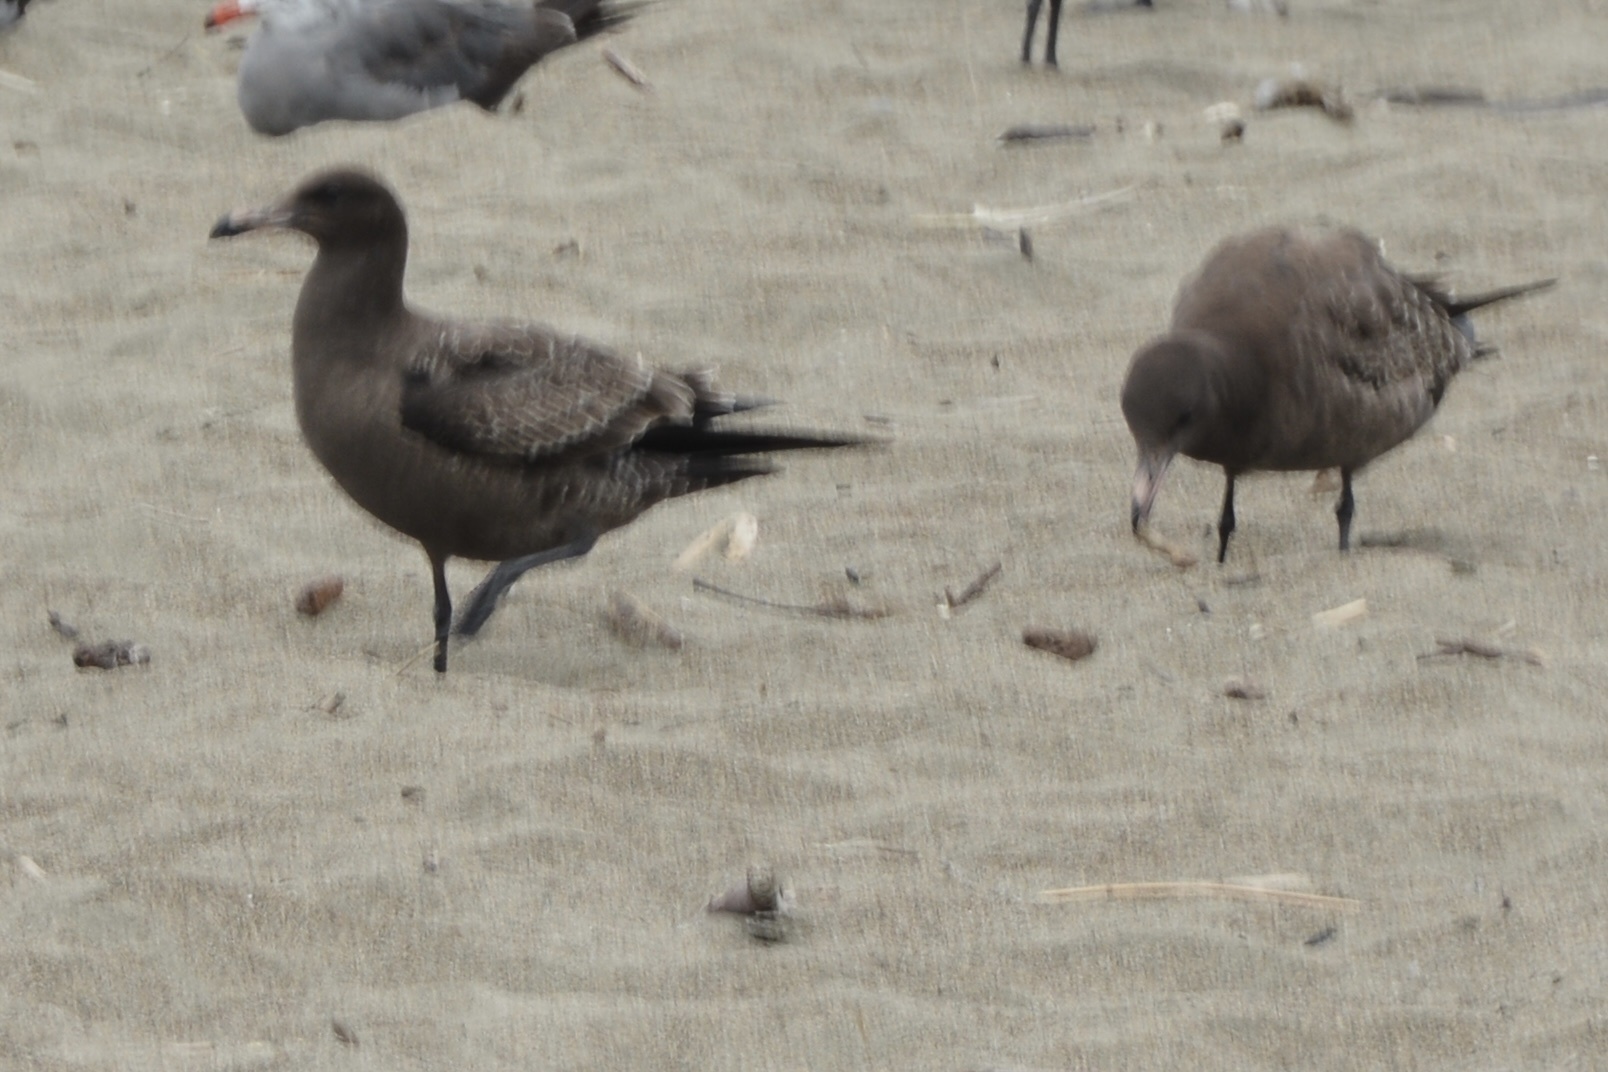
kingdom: Animalia
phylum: Chordata
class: Aves
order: Charadriiformes
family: Laridae
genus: Larus
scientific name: Larus heermanni
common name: Heermann's gull
